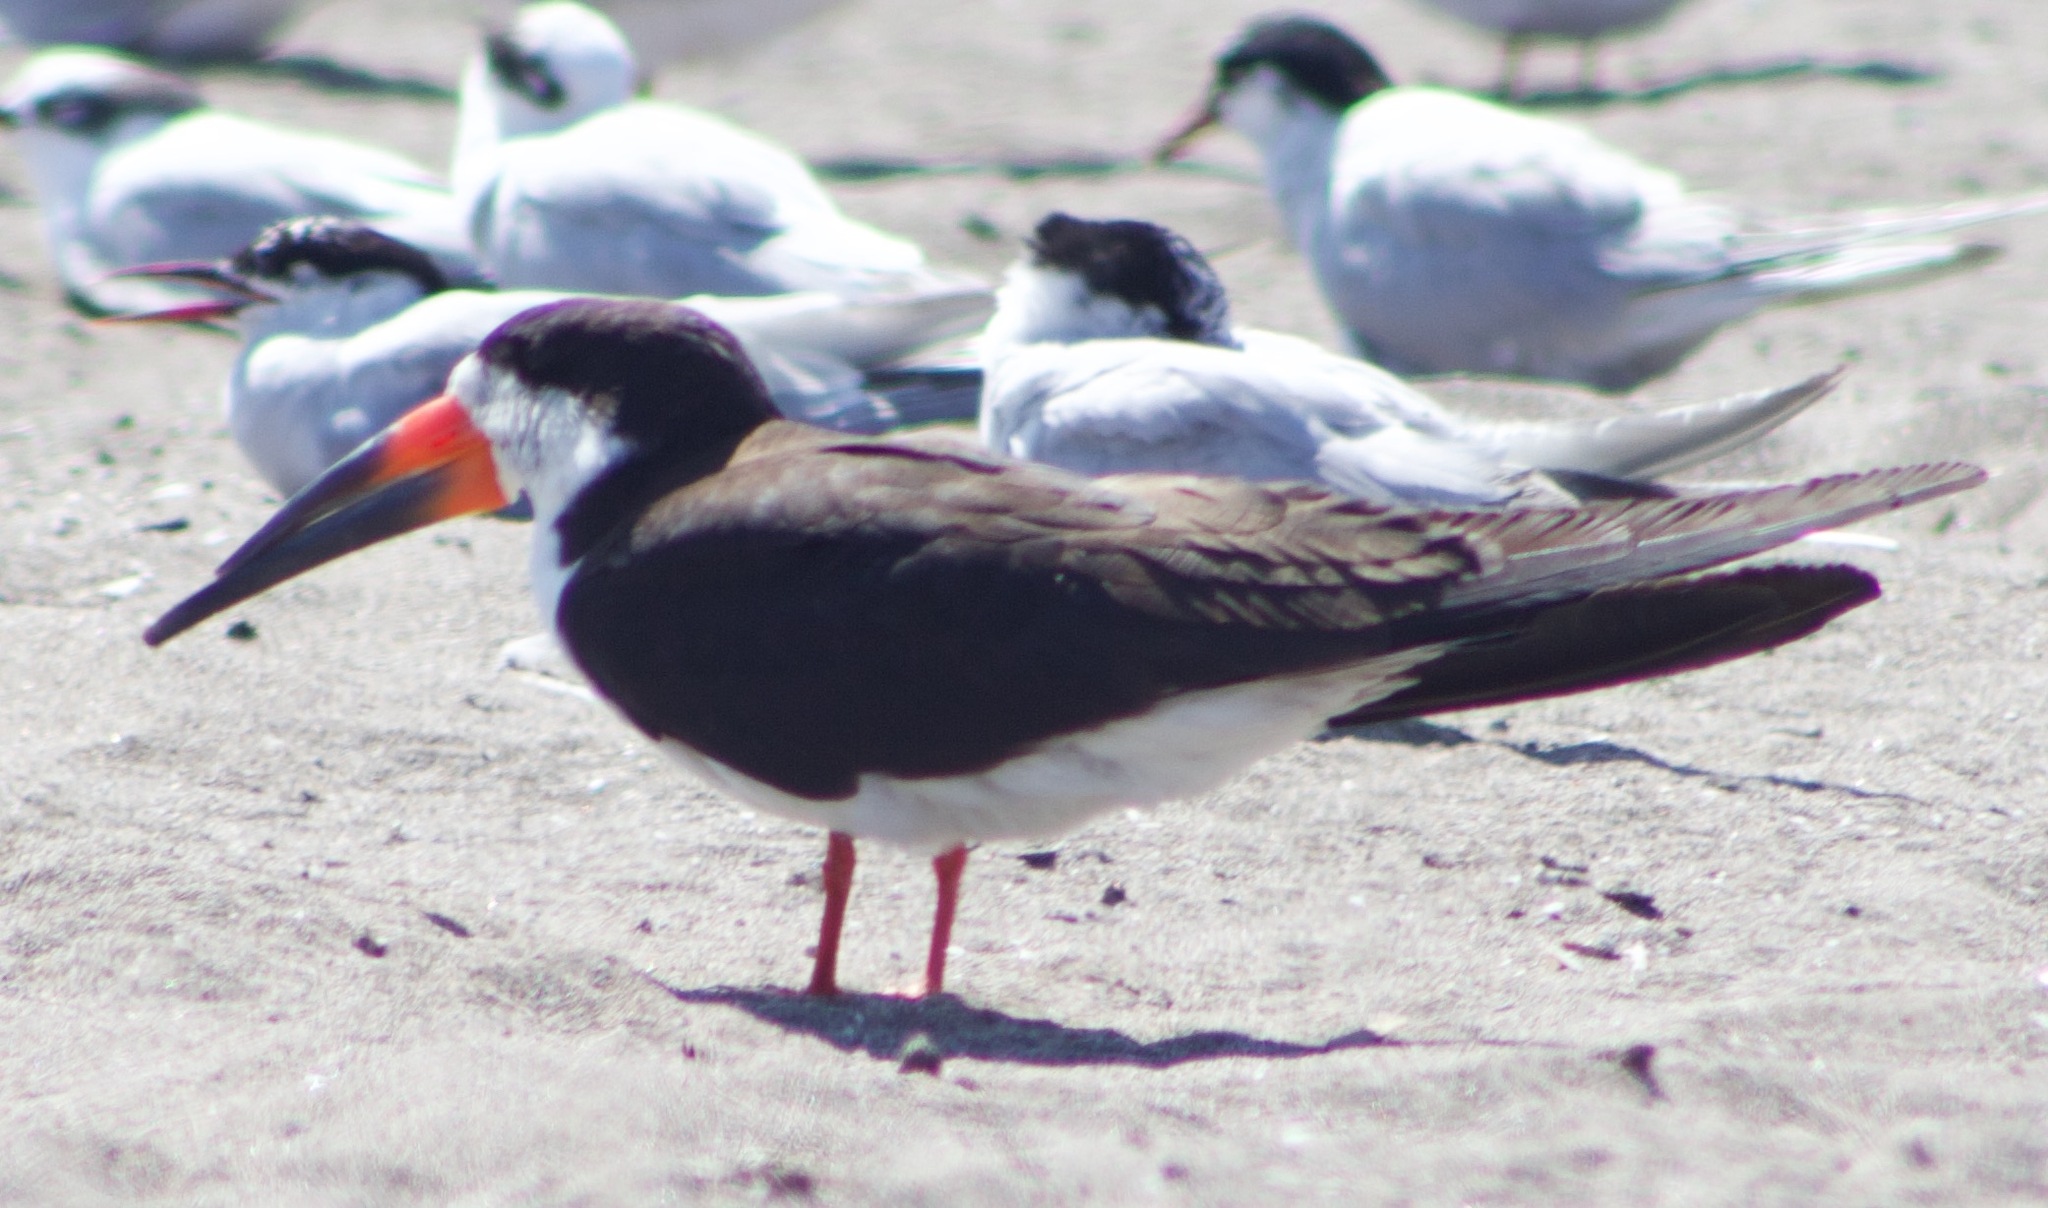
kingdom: Animalia
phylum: Chordata
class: Aves
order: Charadriiformes
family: Laridae
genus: Rynchops
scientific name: Rynchops niger
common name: Black skimmer
